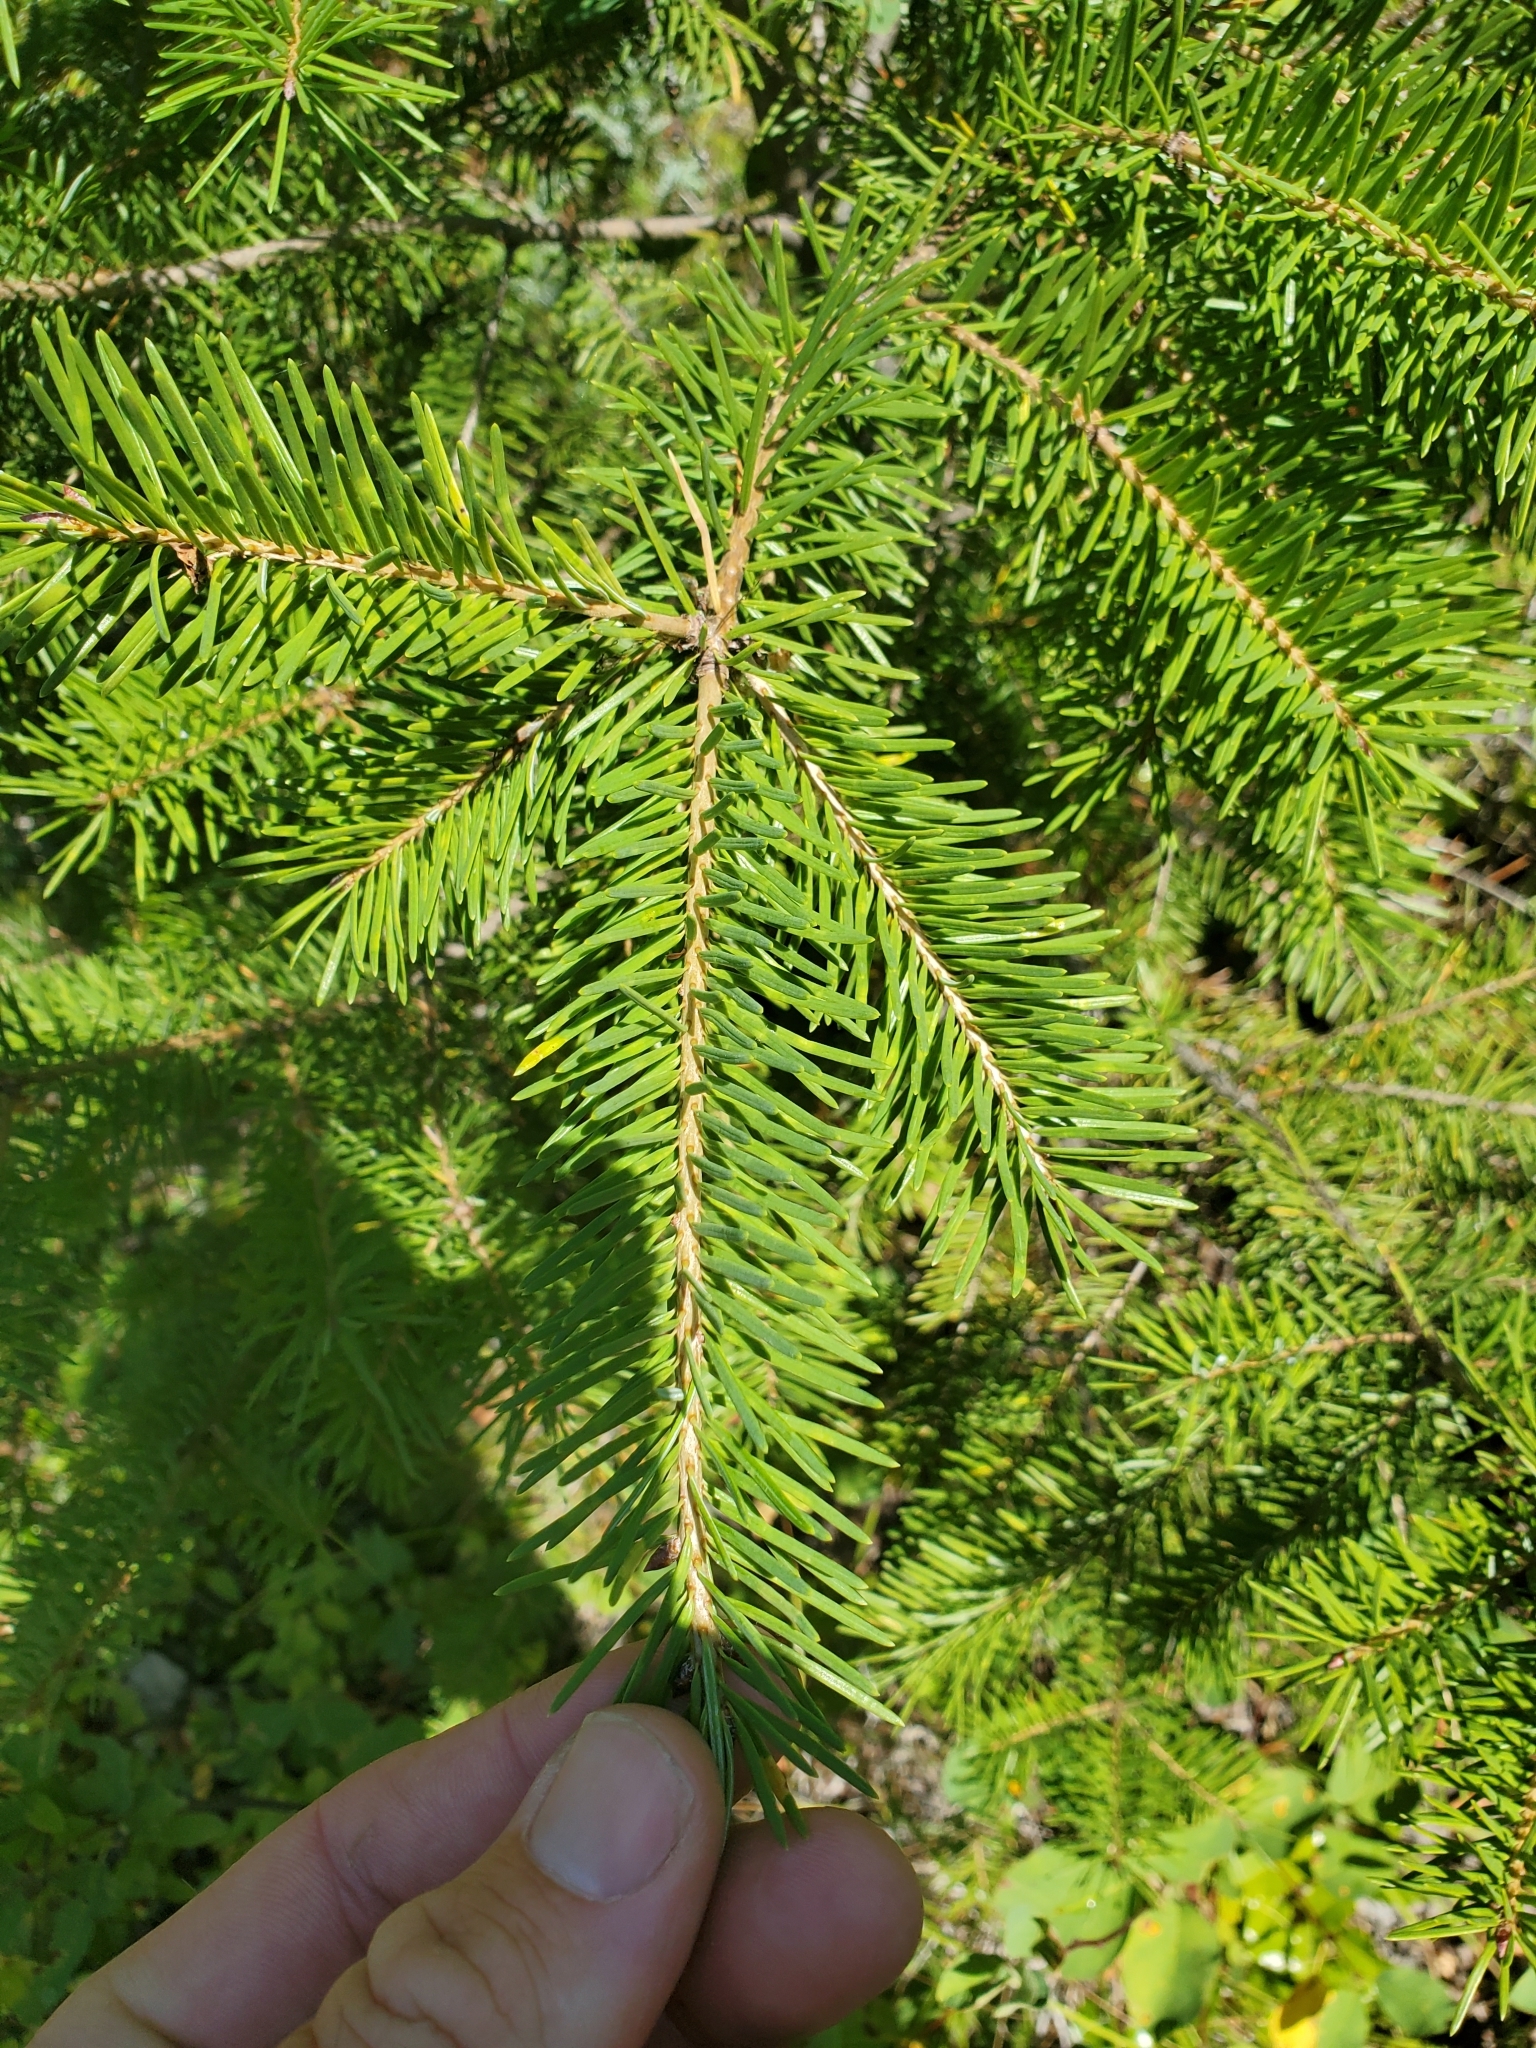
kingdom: Plantae
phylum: Tracheophyta
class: Pinopsida
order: Pinales
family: Pinaceae
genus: Pseudotsuga
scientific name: Pseudotsuga menziesii
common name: Douglas fir
